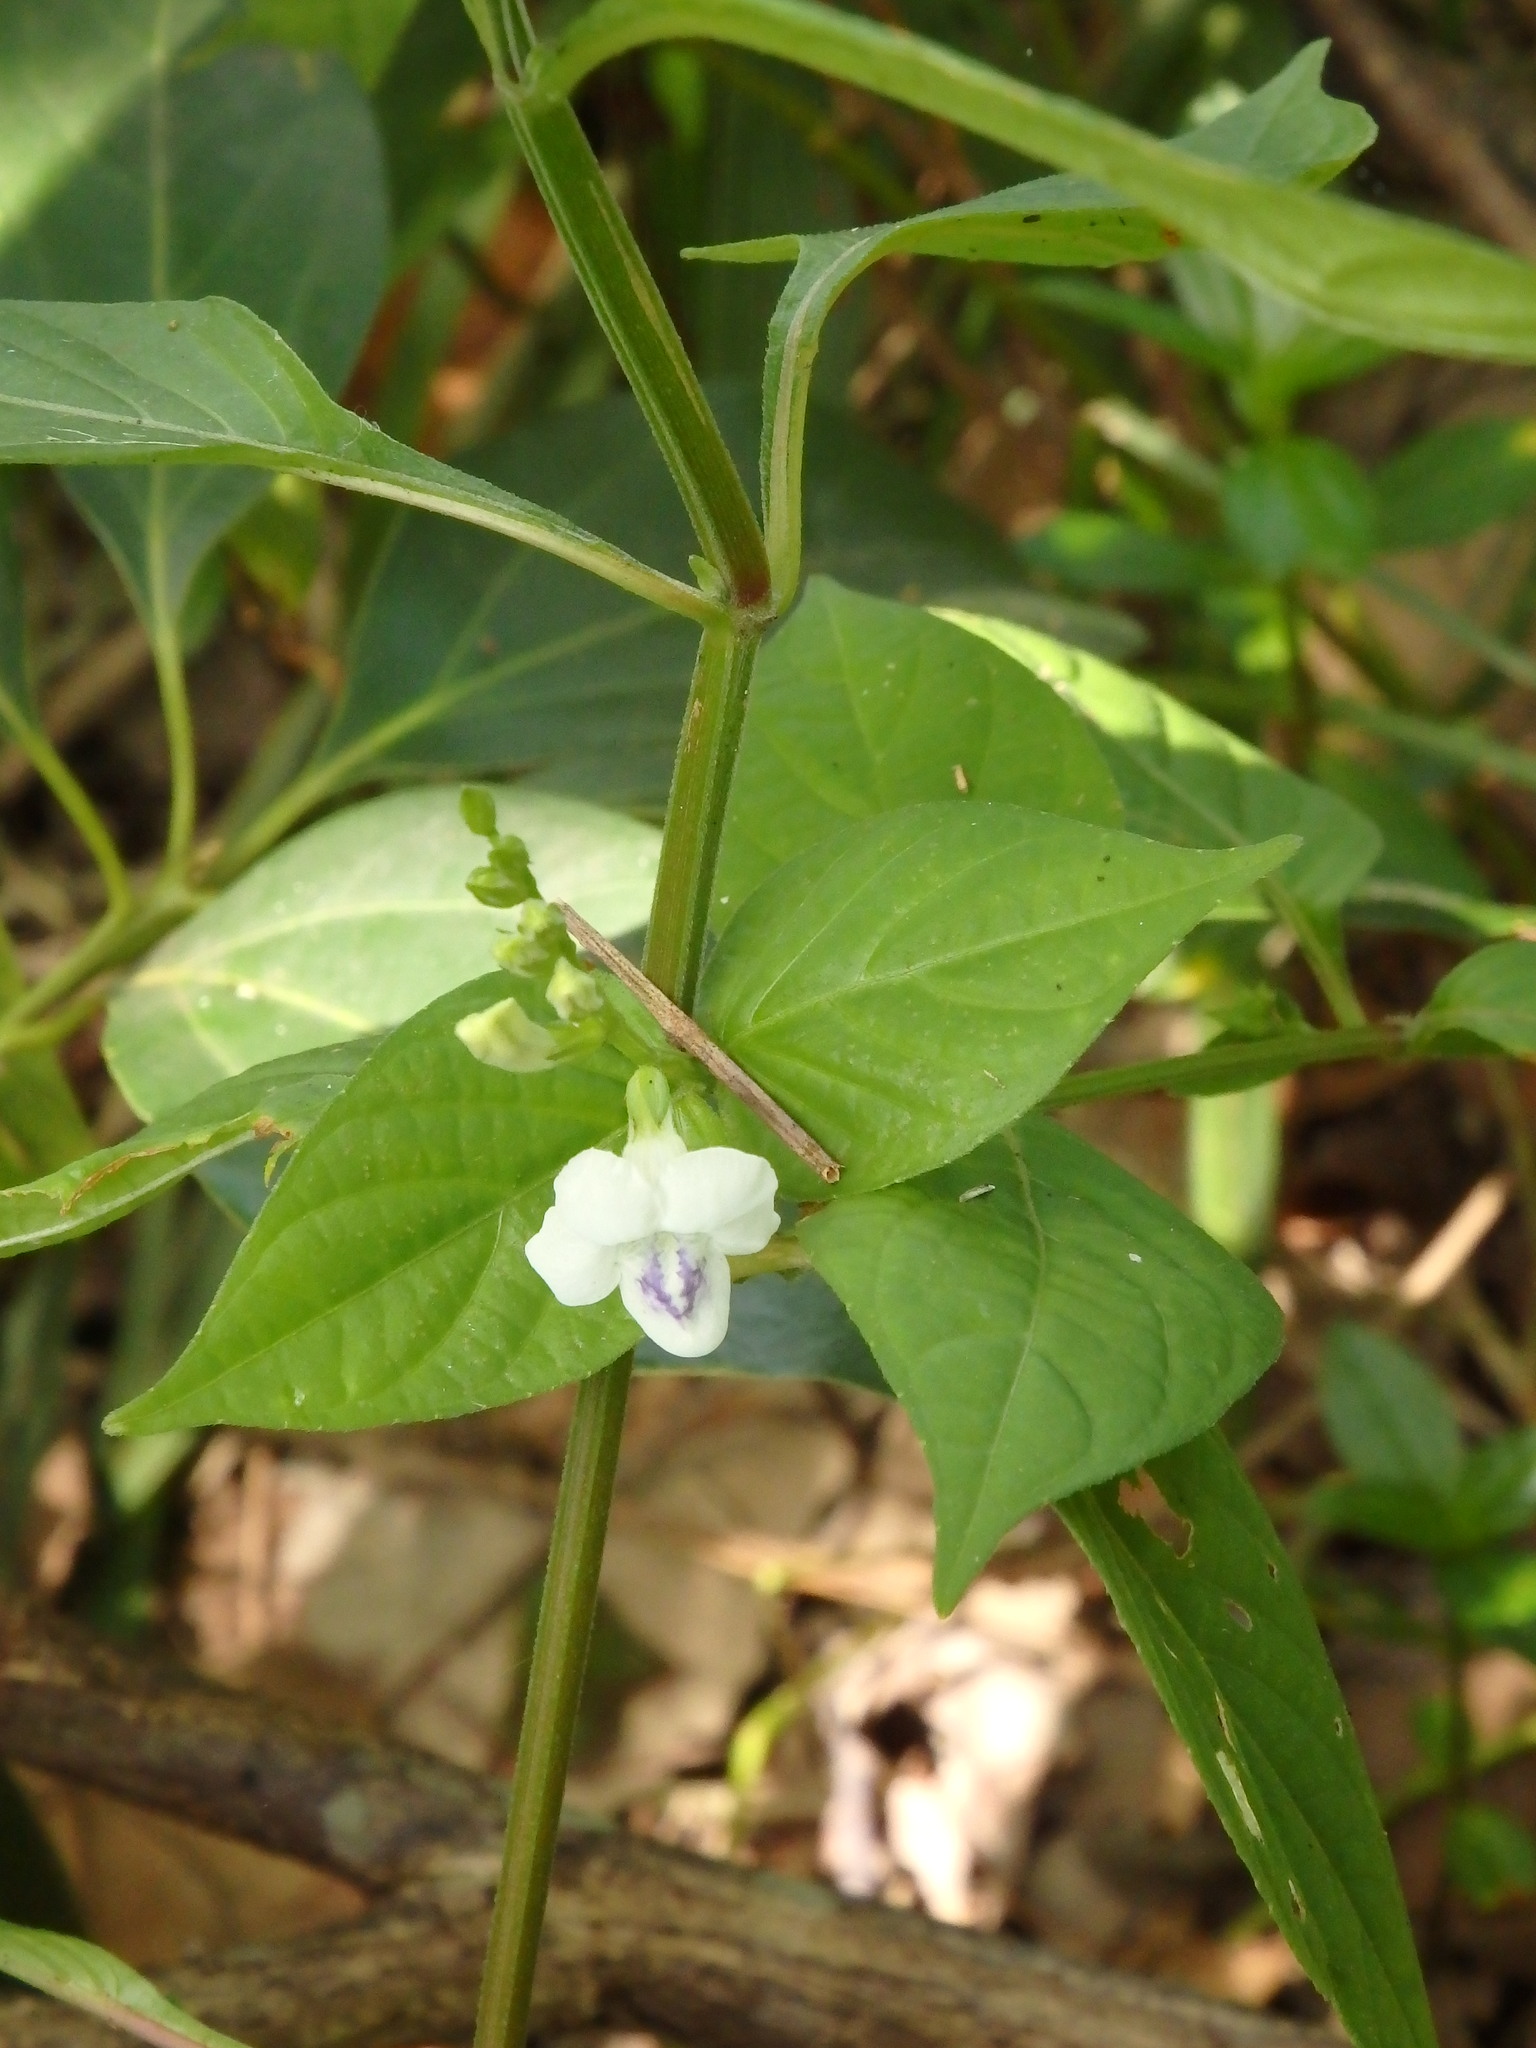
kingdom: Plantae
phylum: Tracheophyta
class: Magnoliopsida
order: Lamiales
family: Acanthaceae
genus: Asystasia
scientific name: Asystasia intrusa
